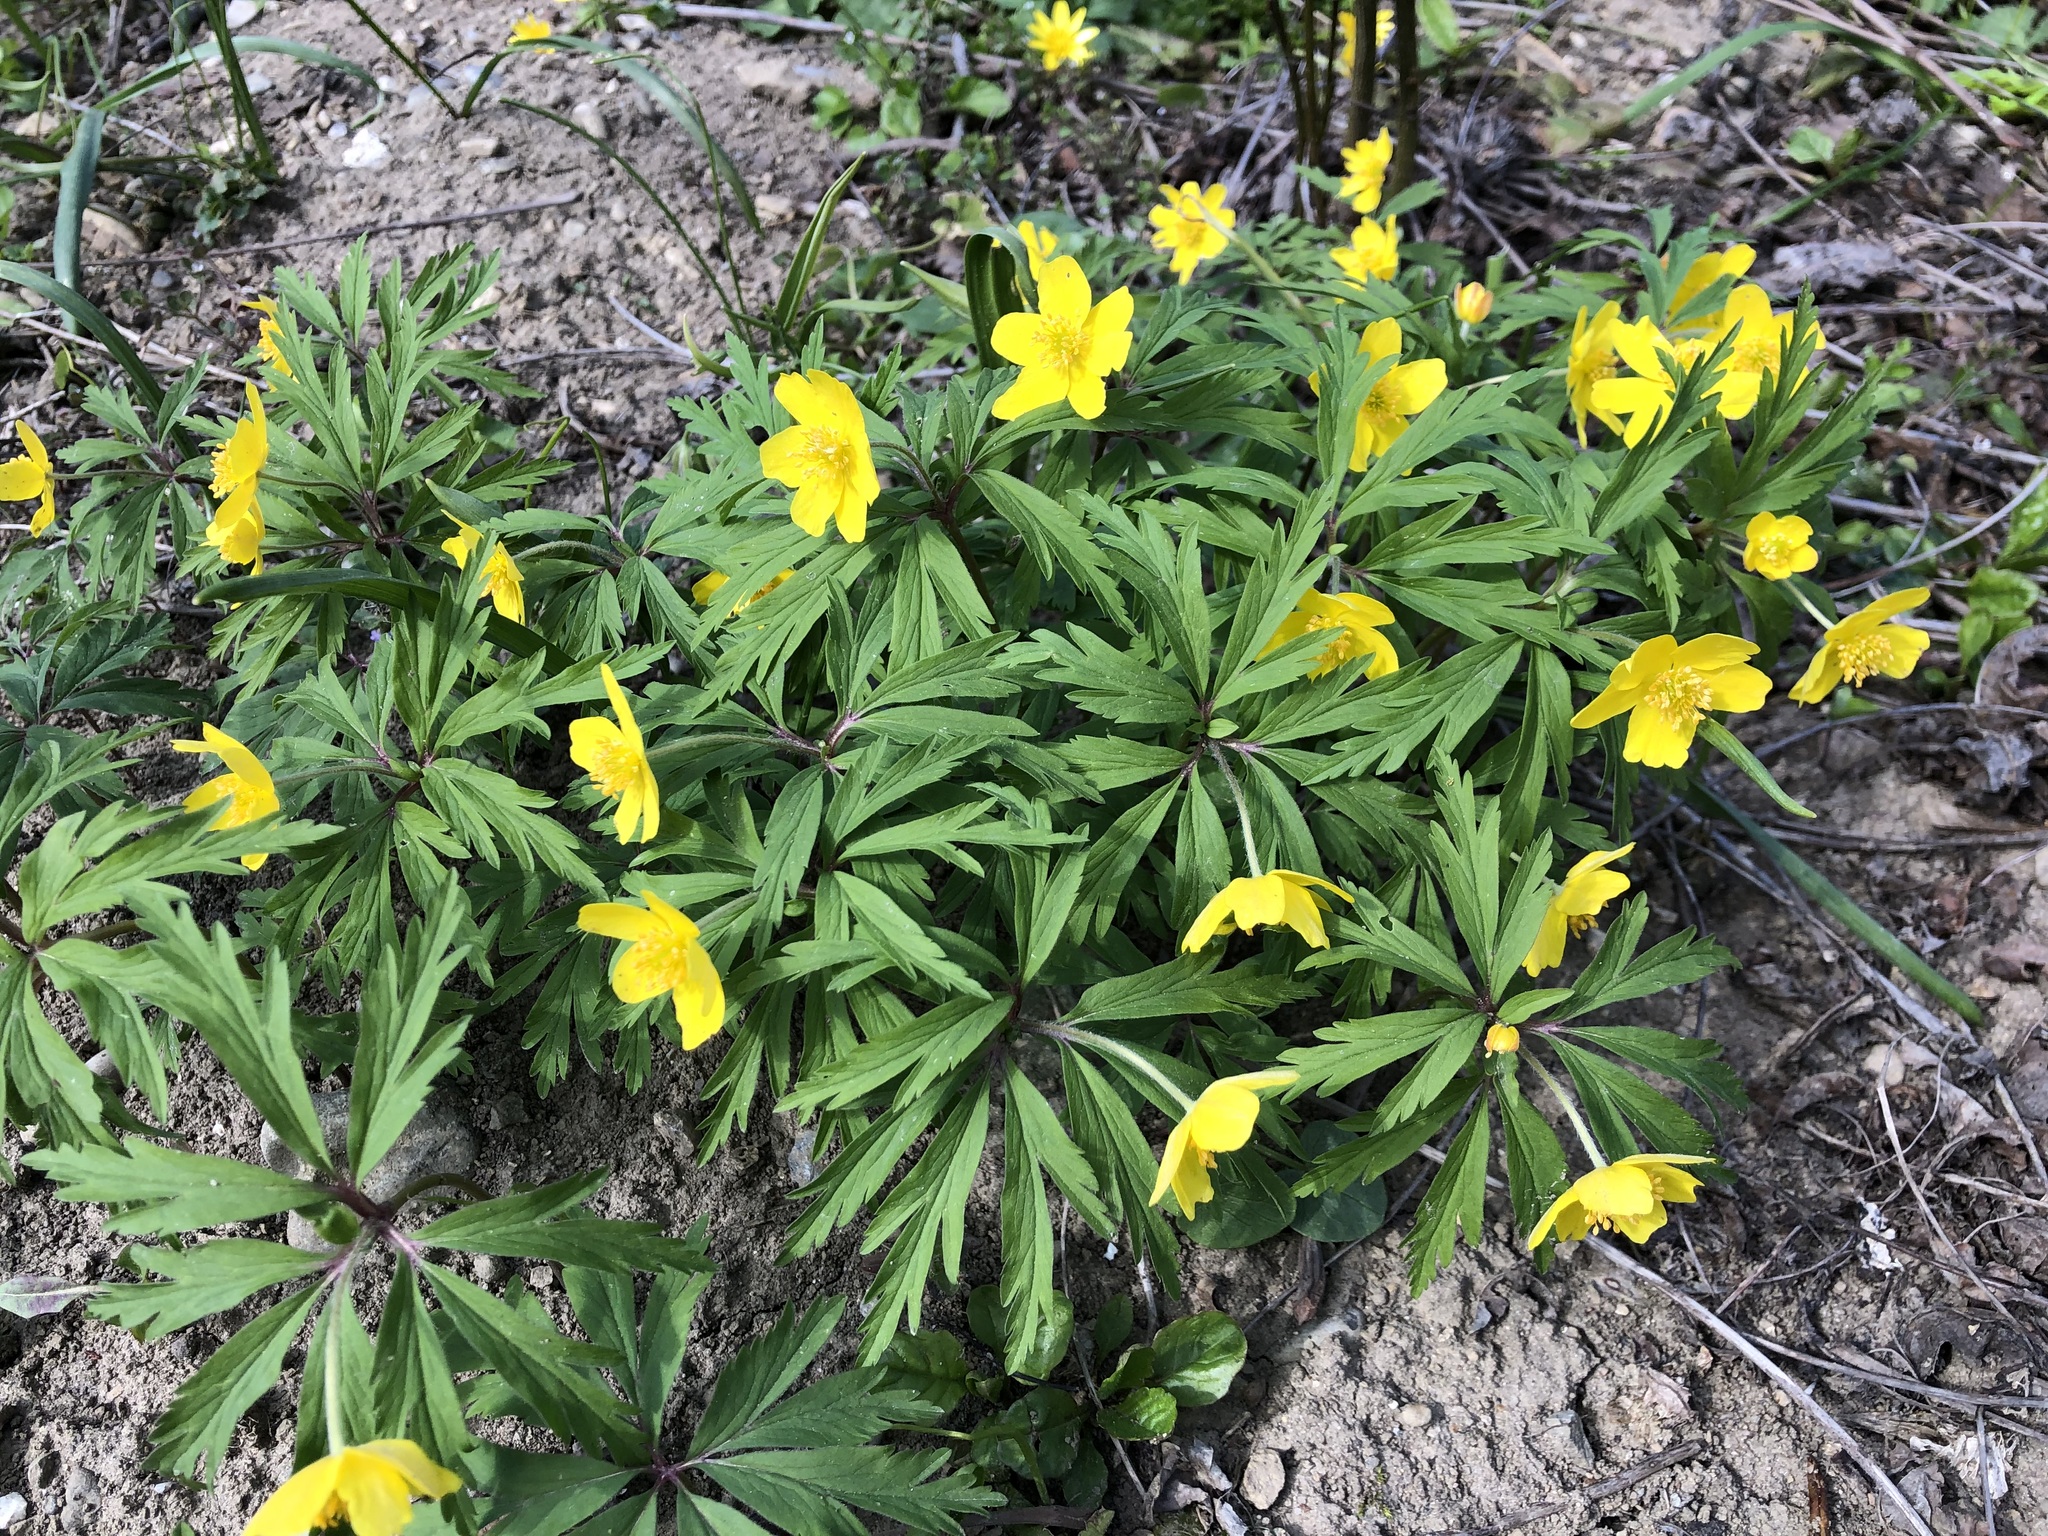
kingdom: Plantae
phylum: Tracheophyta
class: Magnoliopsida
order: Ranunculales
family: Ranunculaceae
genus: Anemone
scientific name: Anemone ranunculoides
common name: Yellow anemone
